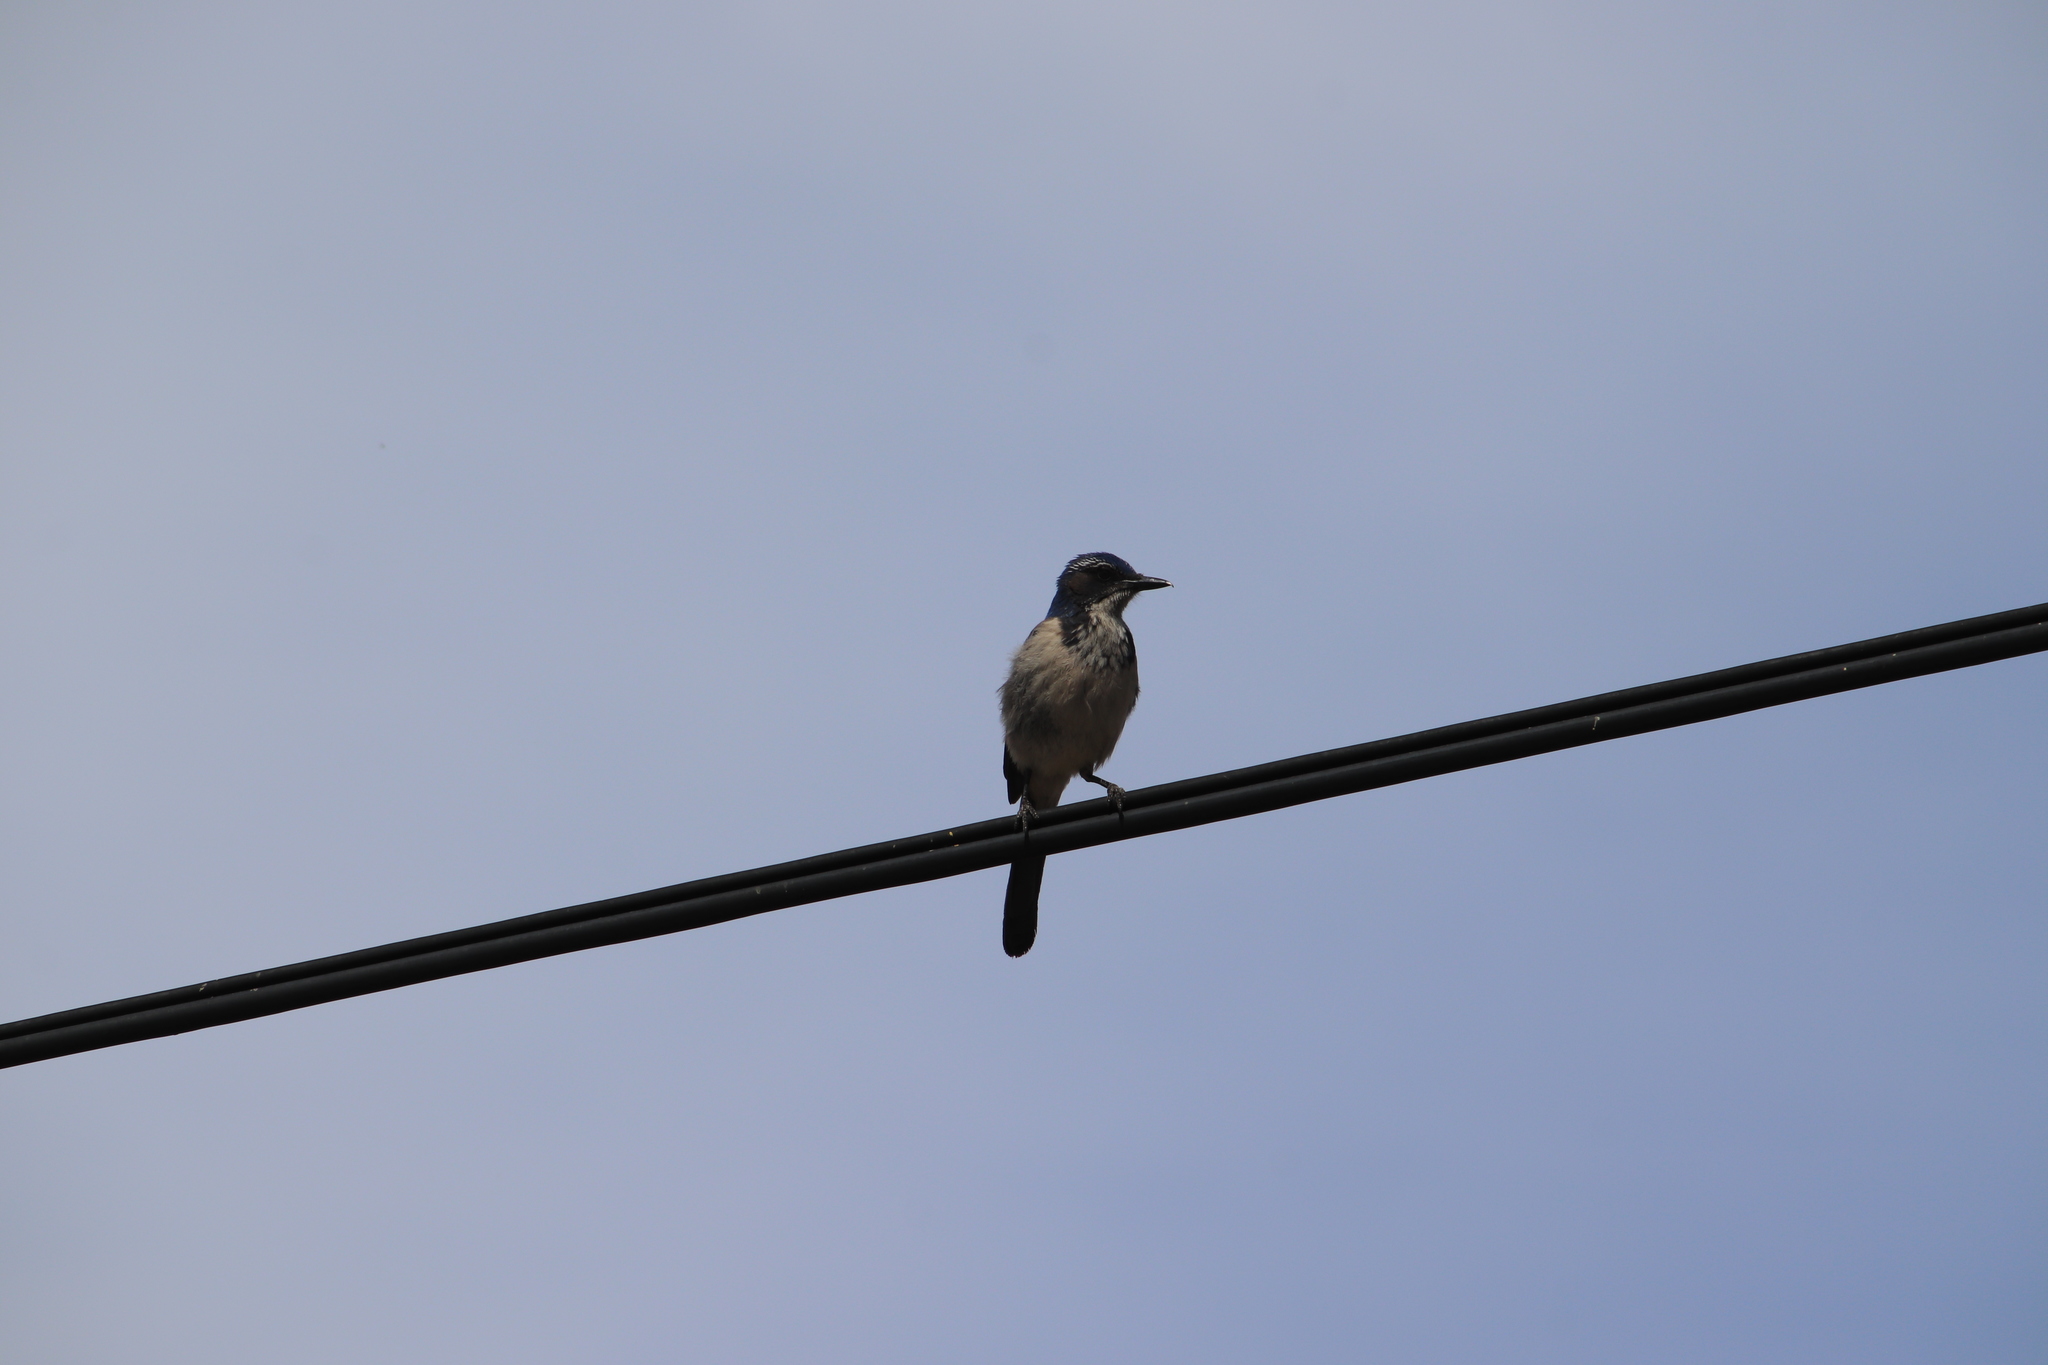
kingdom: Animalia
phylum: Chordata
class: Aves
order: Passeriformes
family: Corvidae
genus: Aphelocoma
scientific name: Aphelocoma californica
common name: California scrub-jay
